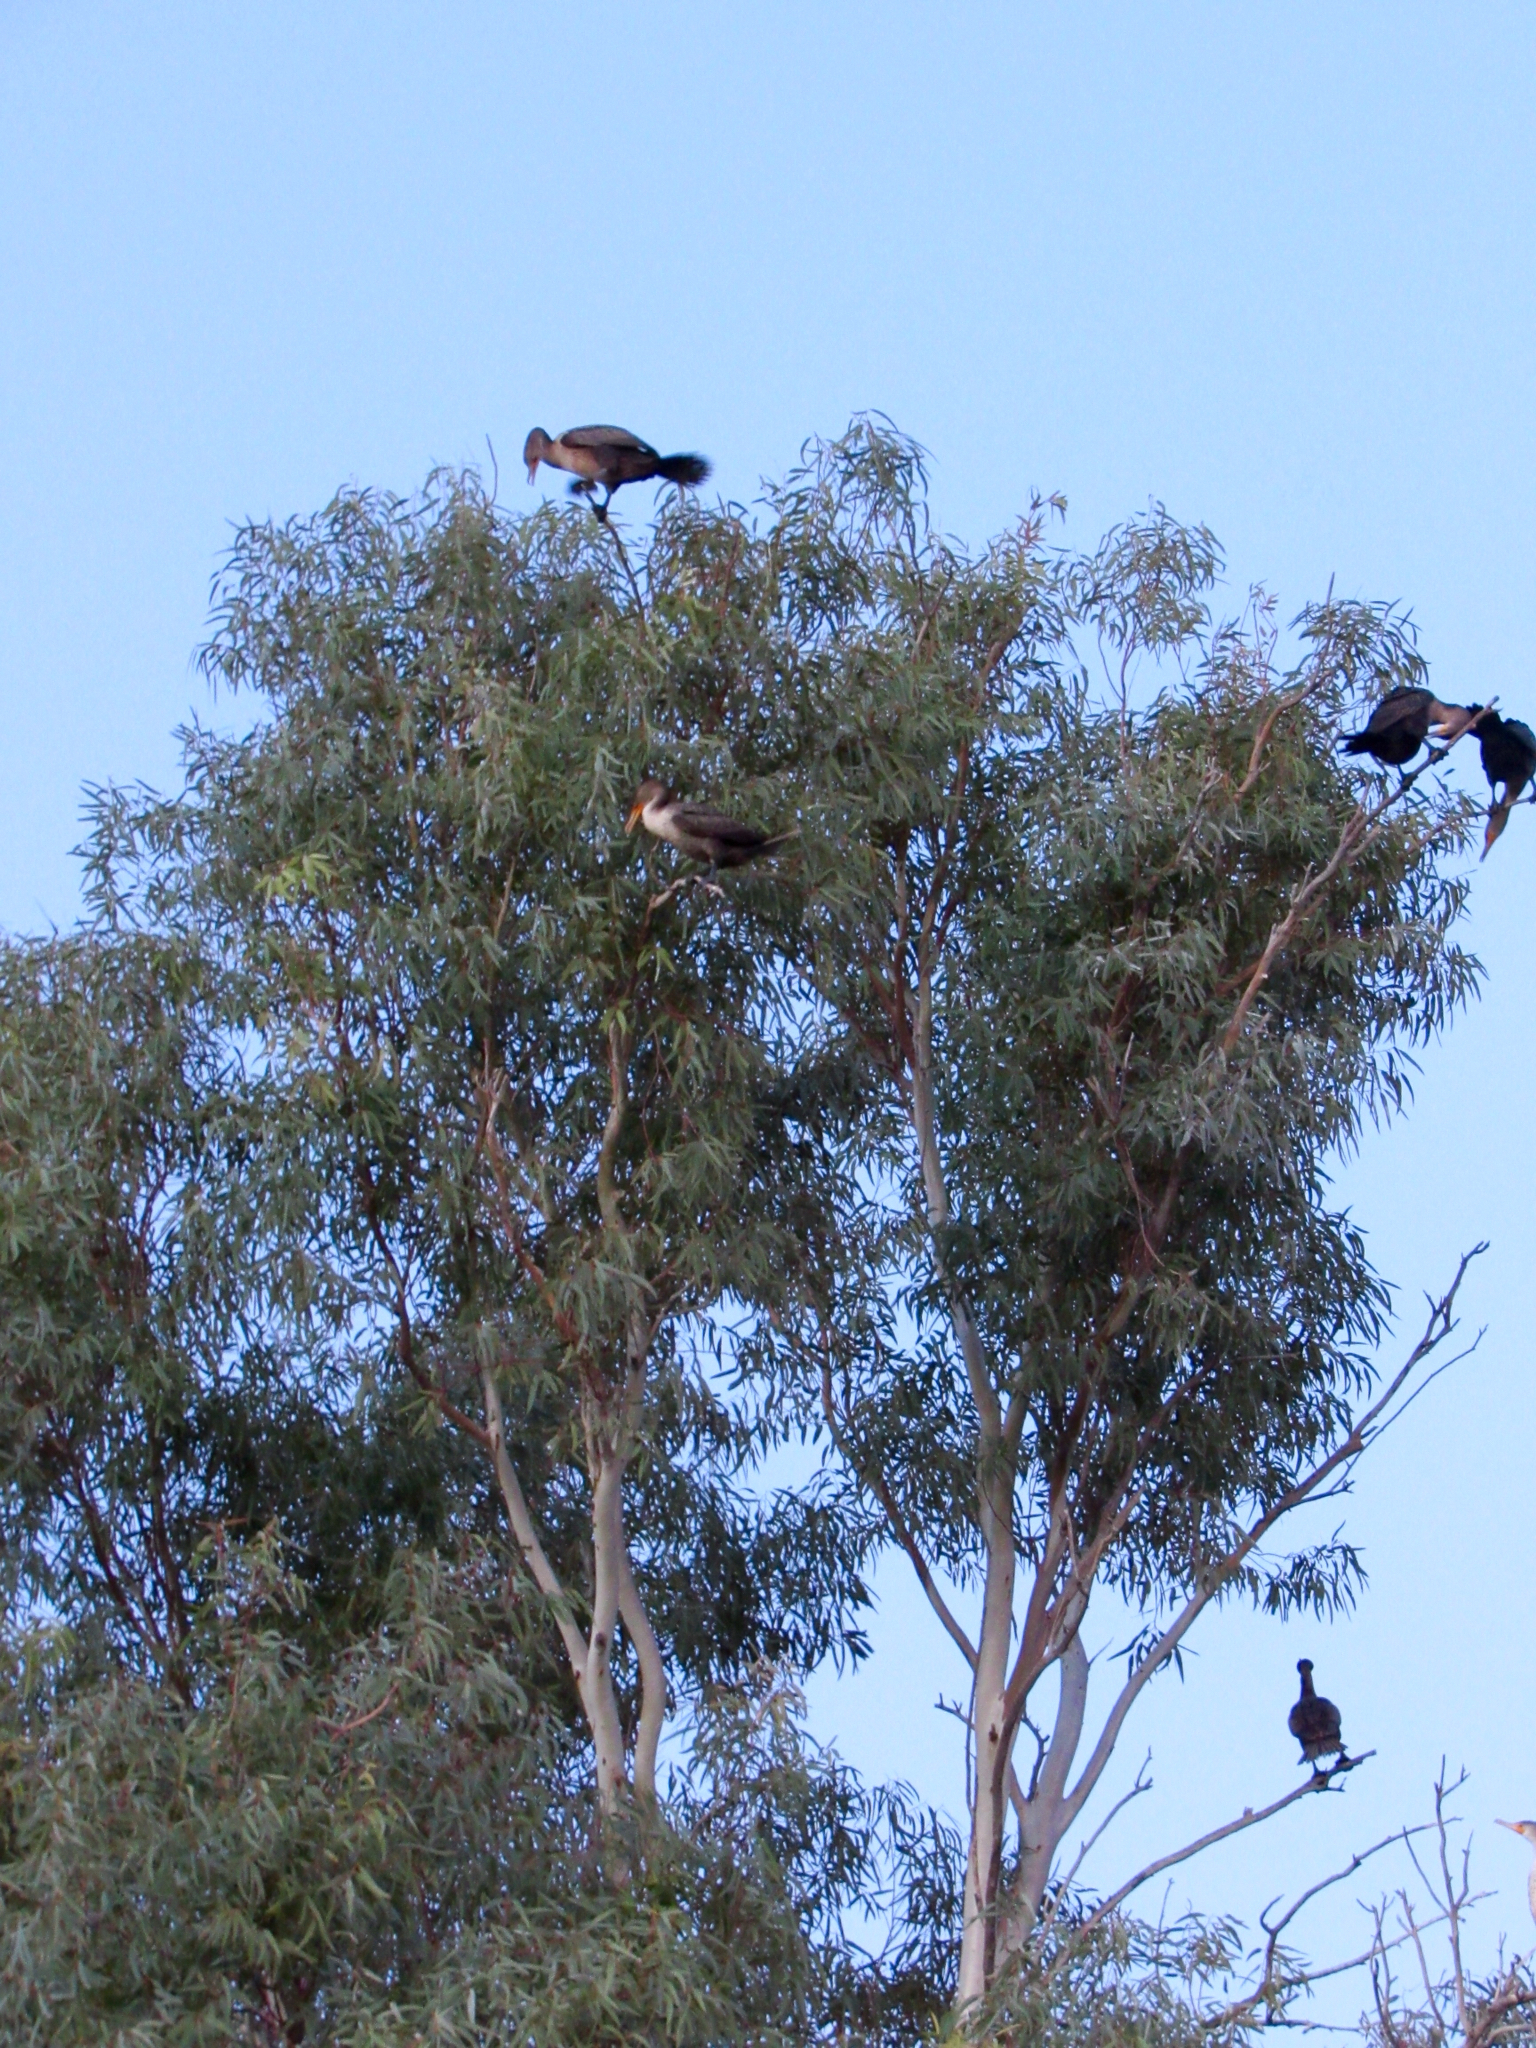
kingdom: Animalia
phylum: Chordata
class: Aves
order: Suliformes
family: Phalacrocoracidae
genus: Phalacrocorax
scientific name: Phalacrocorax auritus
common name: Double-crested cormorant
